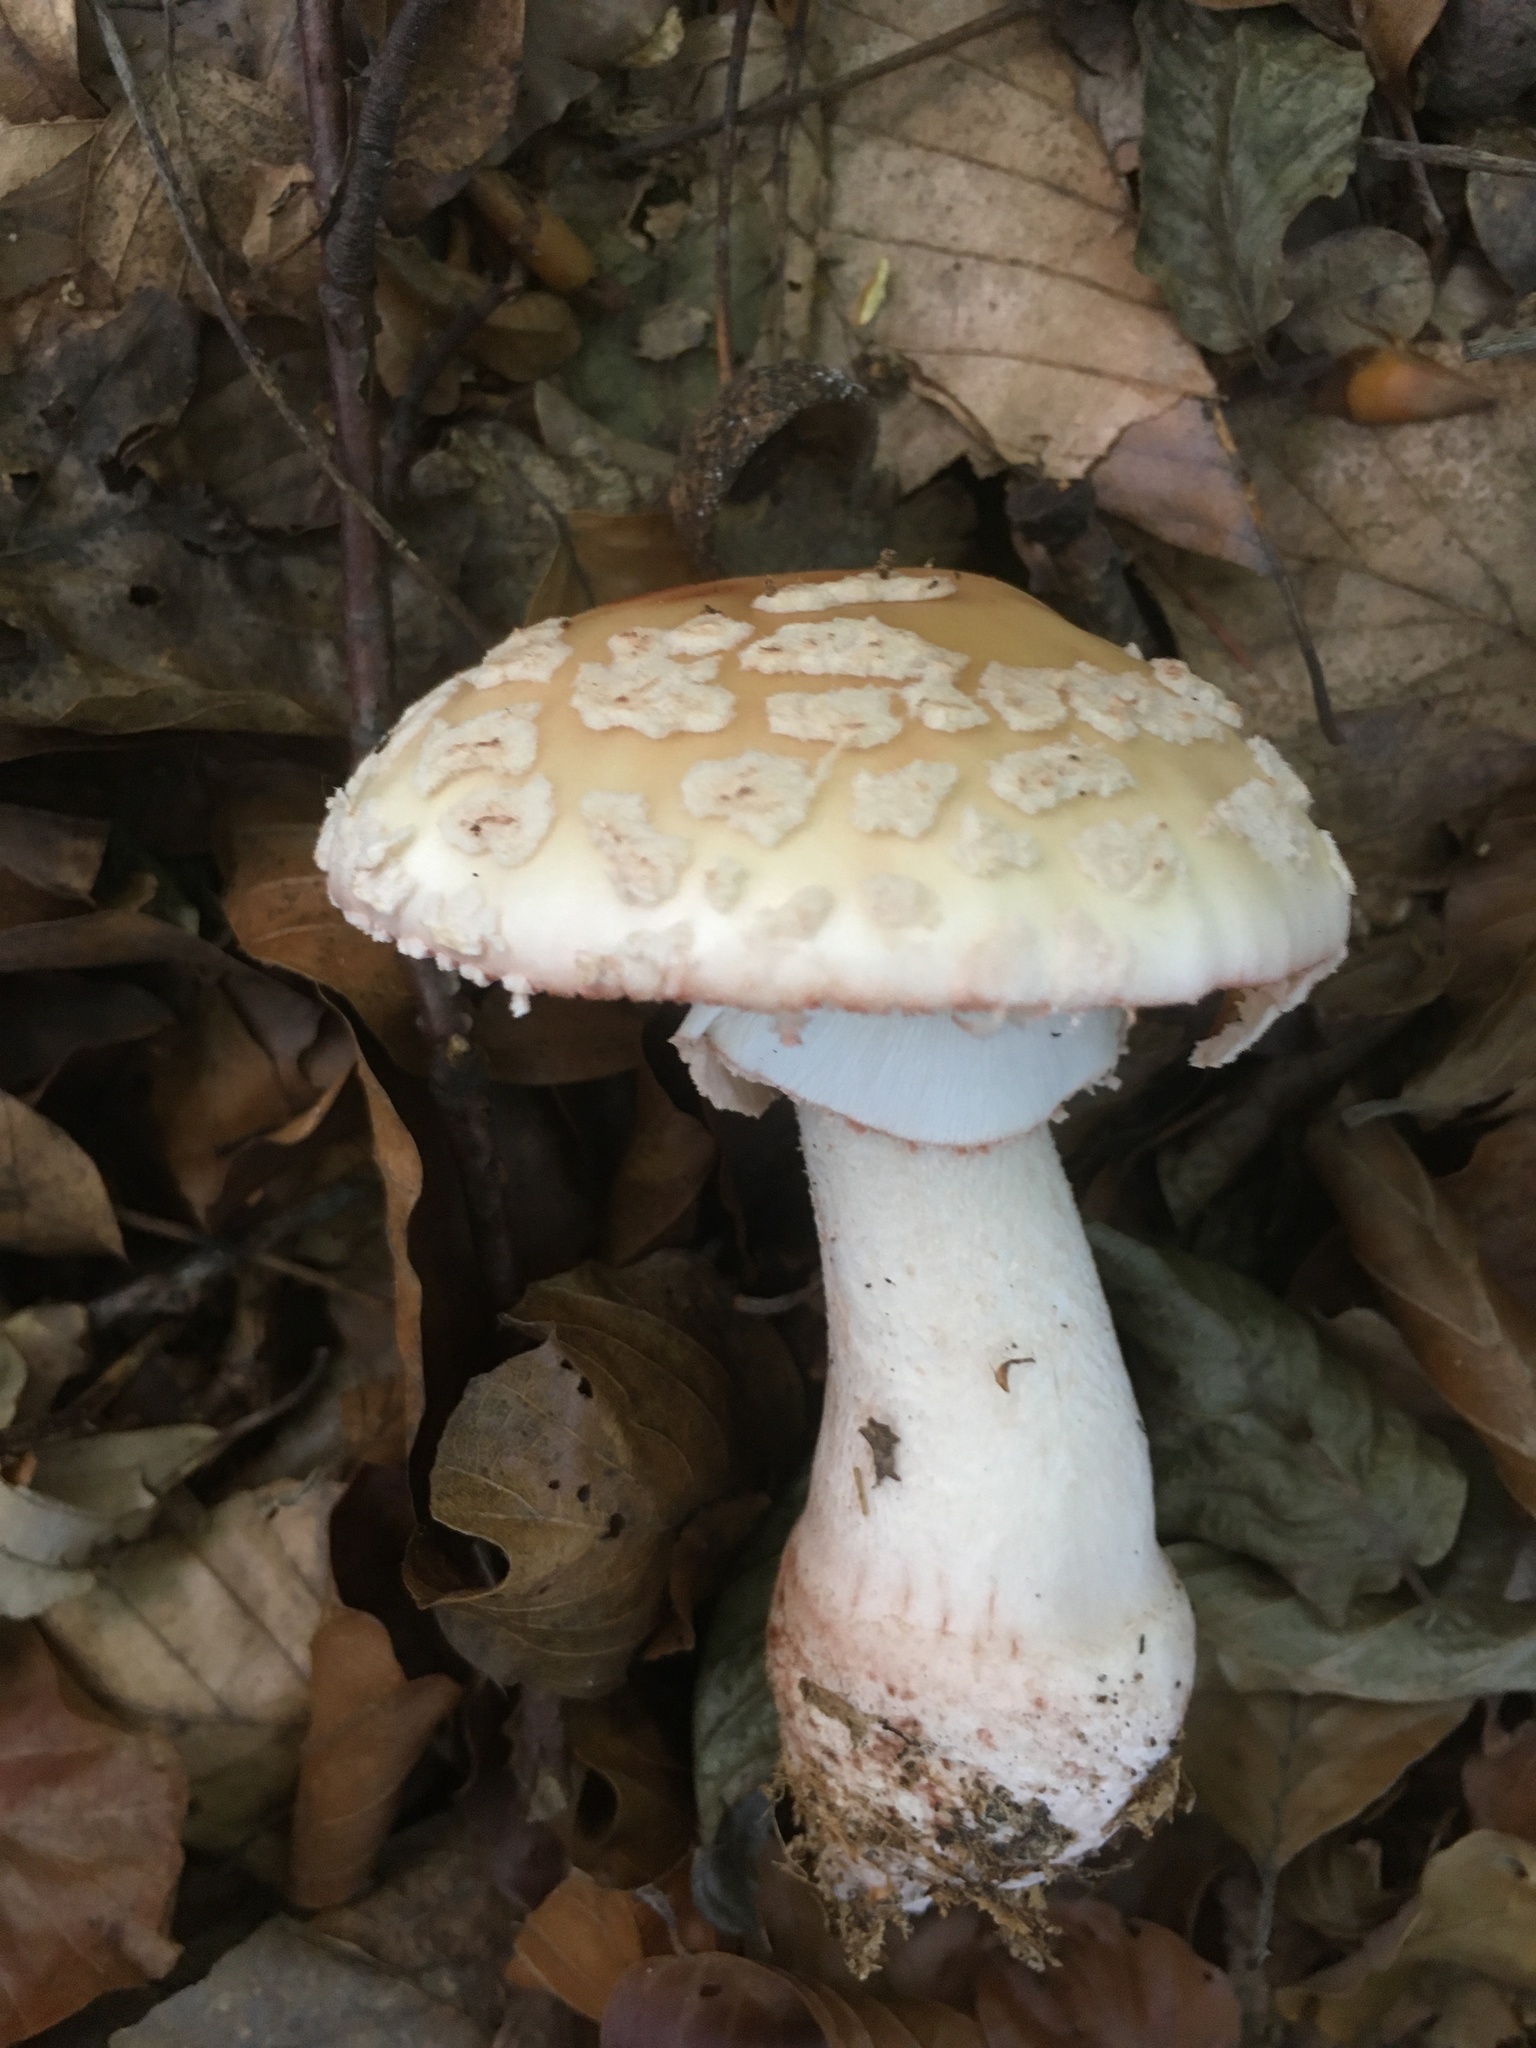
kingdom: Fungi
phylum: Basidiomycota
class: Agaricomycetes
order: Agaricales
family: Amanitaceae
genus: Amanita
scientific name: Amanita rubescens
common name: Blusher
